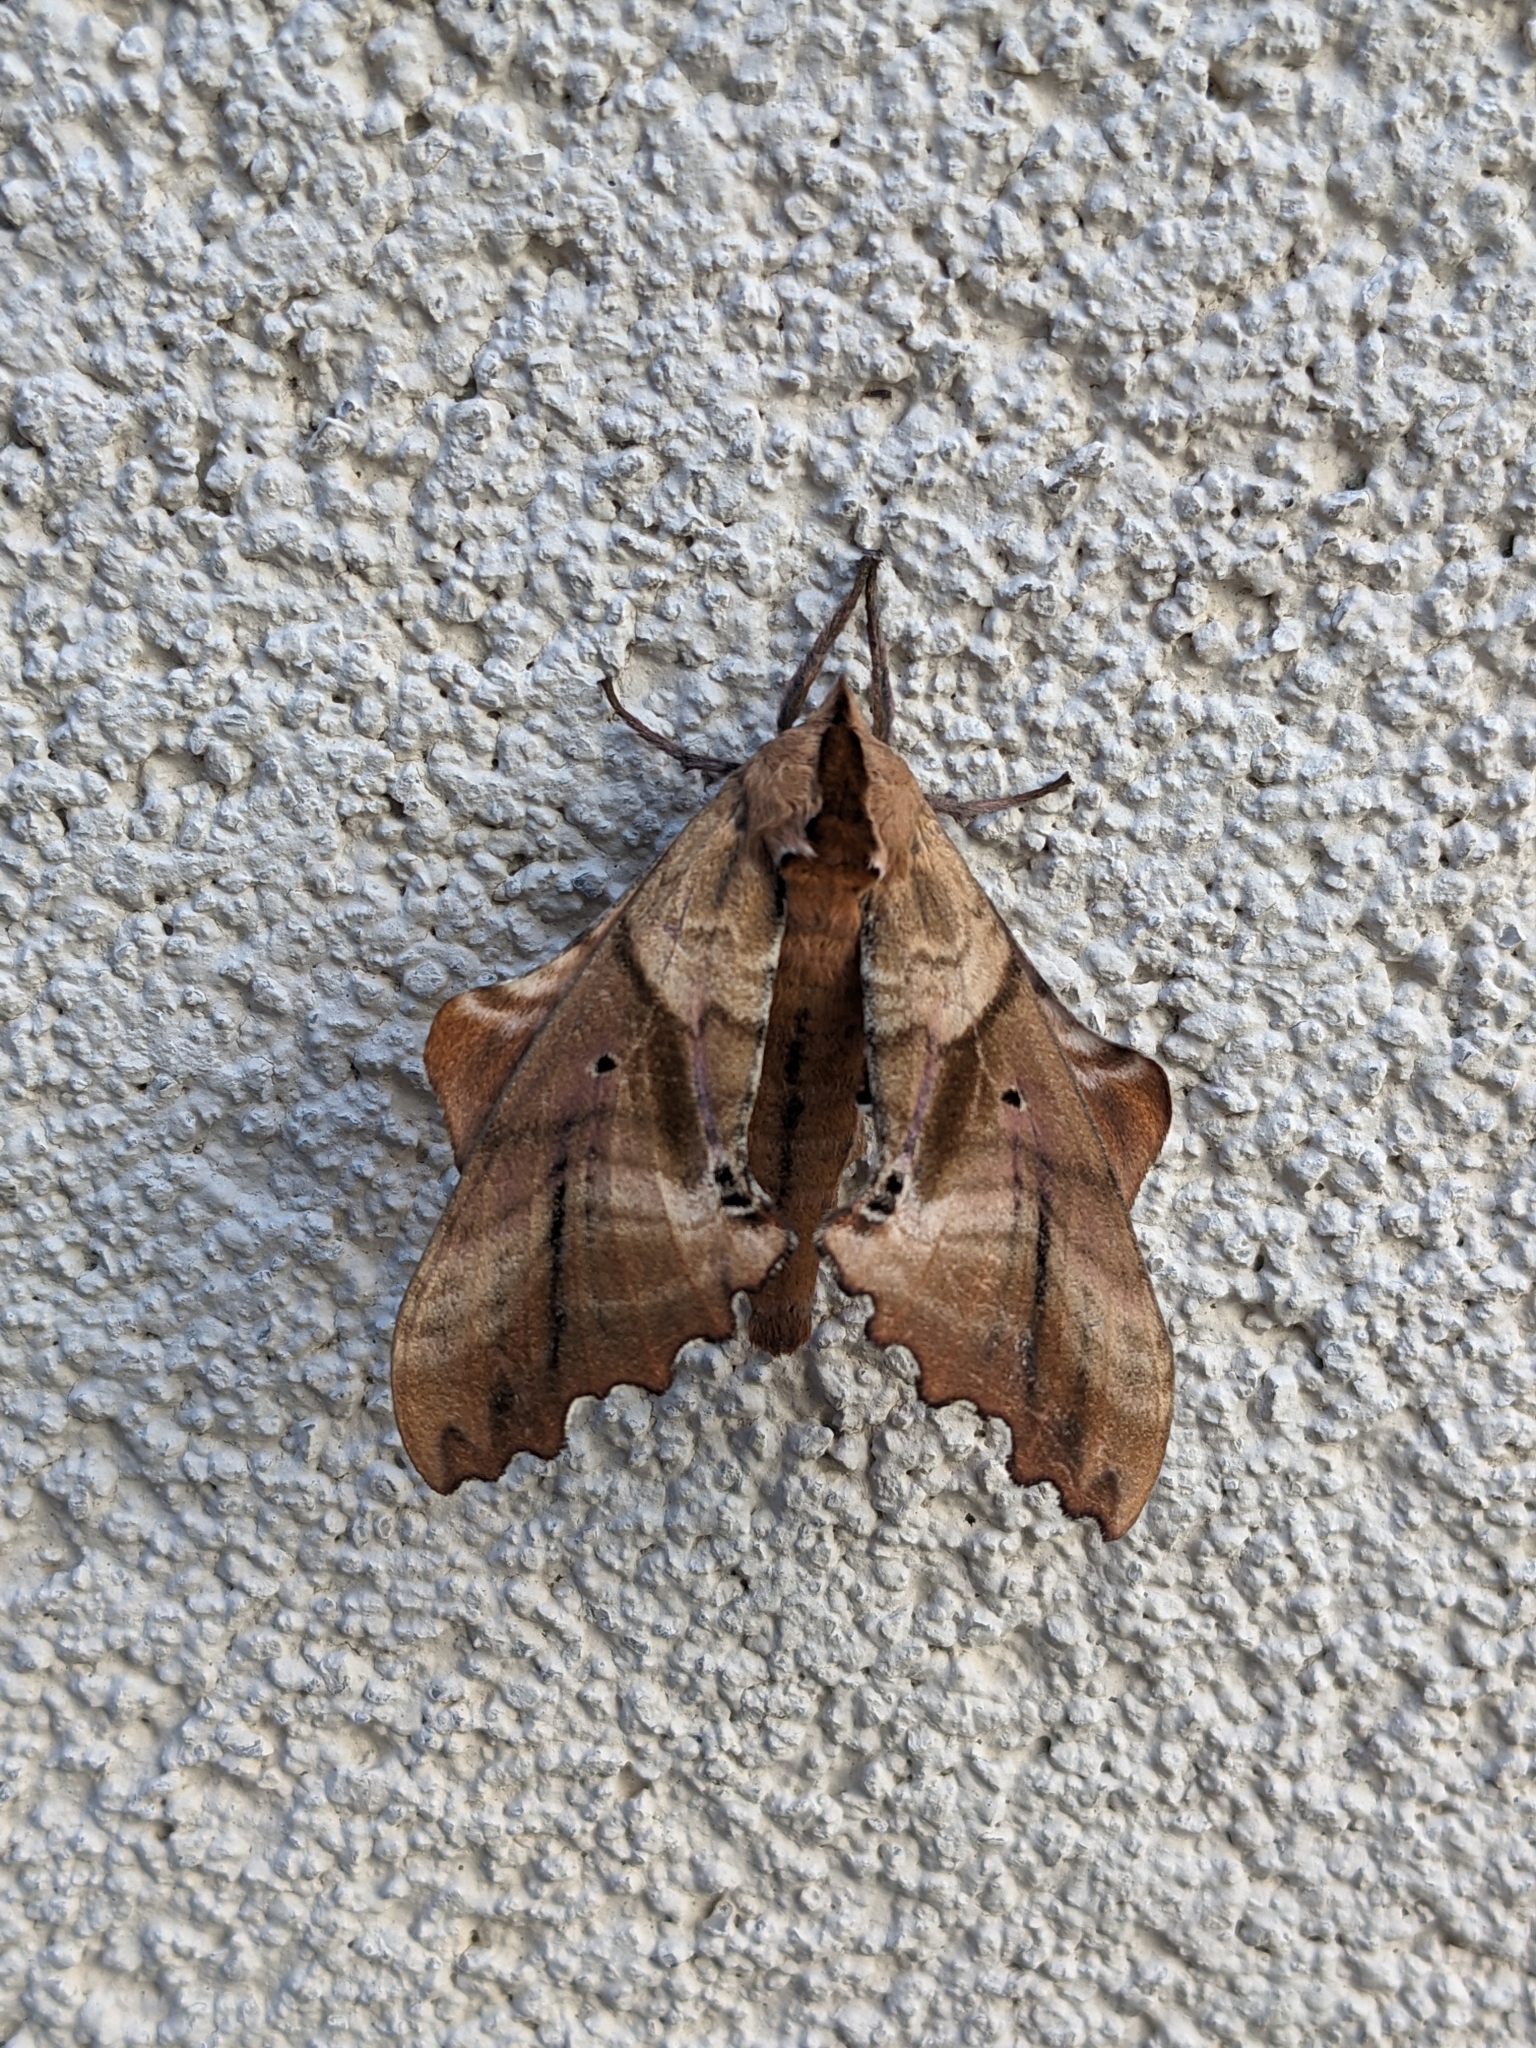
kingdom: Animalia
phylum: Arthropoda
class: Insecta
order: Lepidoptera
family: Sphingidae
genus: Paonias
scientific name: Paonias excaecata
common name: Blind-eyed sphinx
